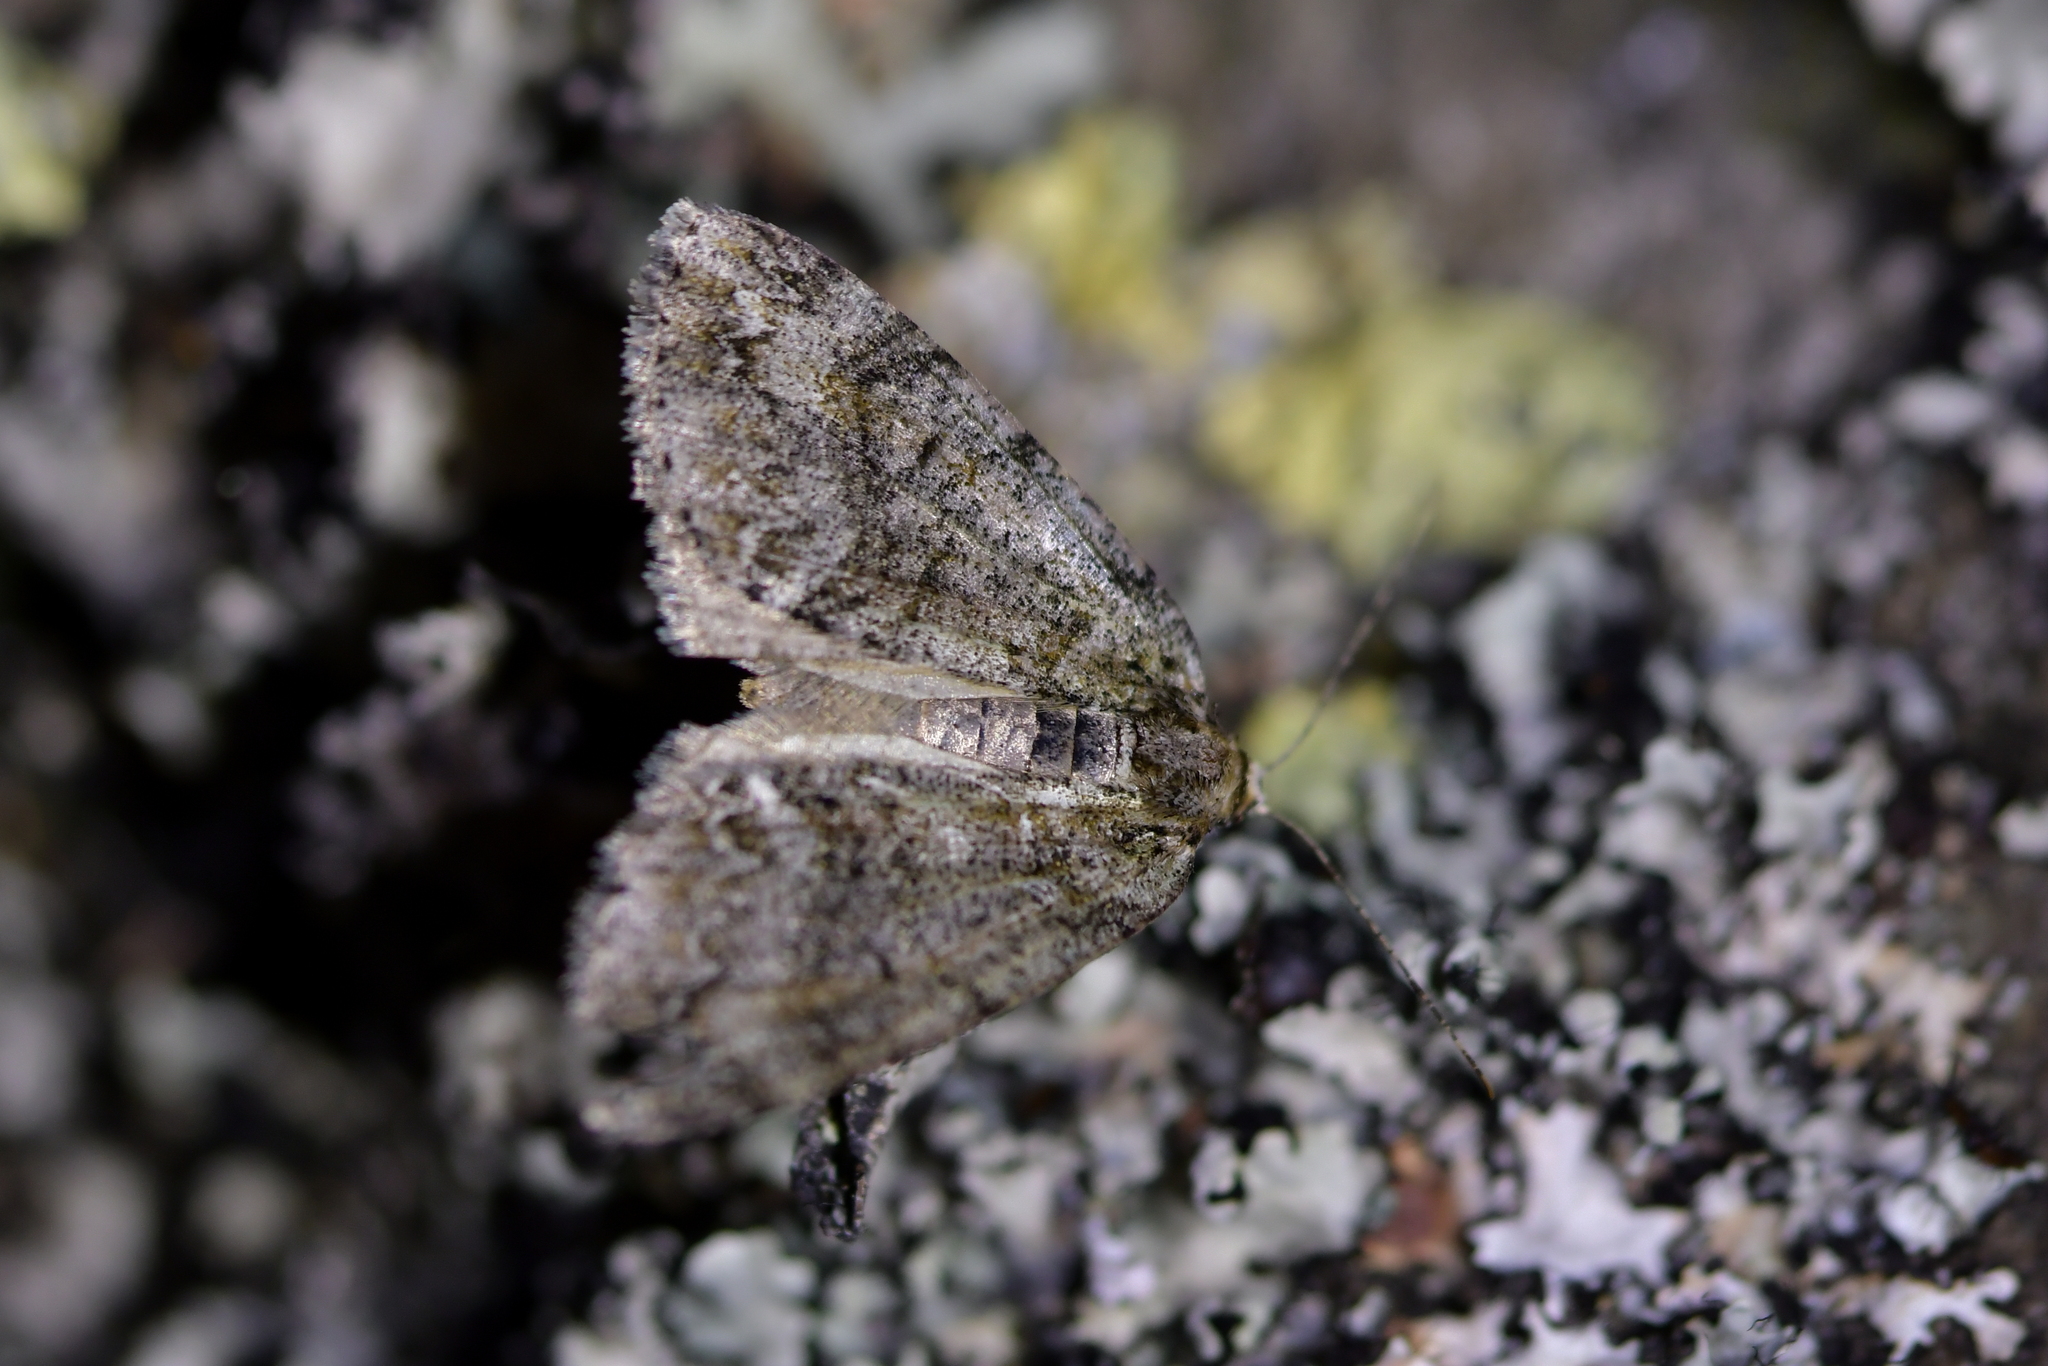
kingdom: Animalia
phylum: Arthropoda
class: Insecta
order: Lepidoptera
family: Geometridae
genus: Pseudocoremia
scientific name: Pseudocoremia suavis
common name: Common forest looper
